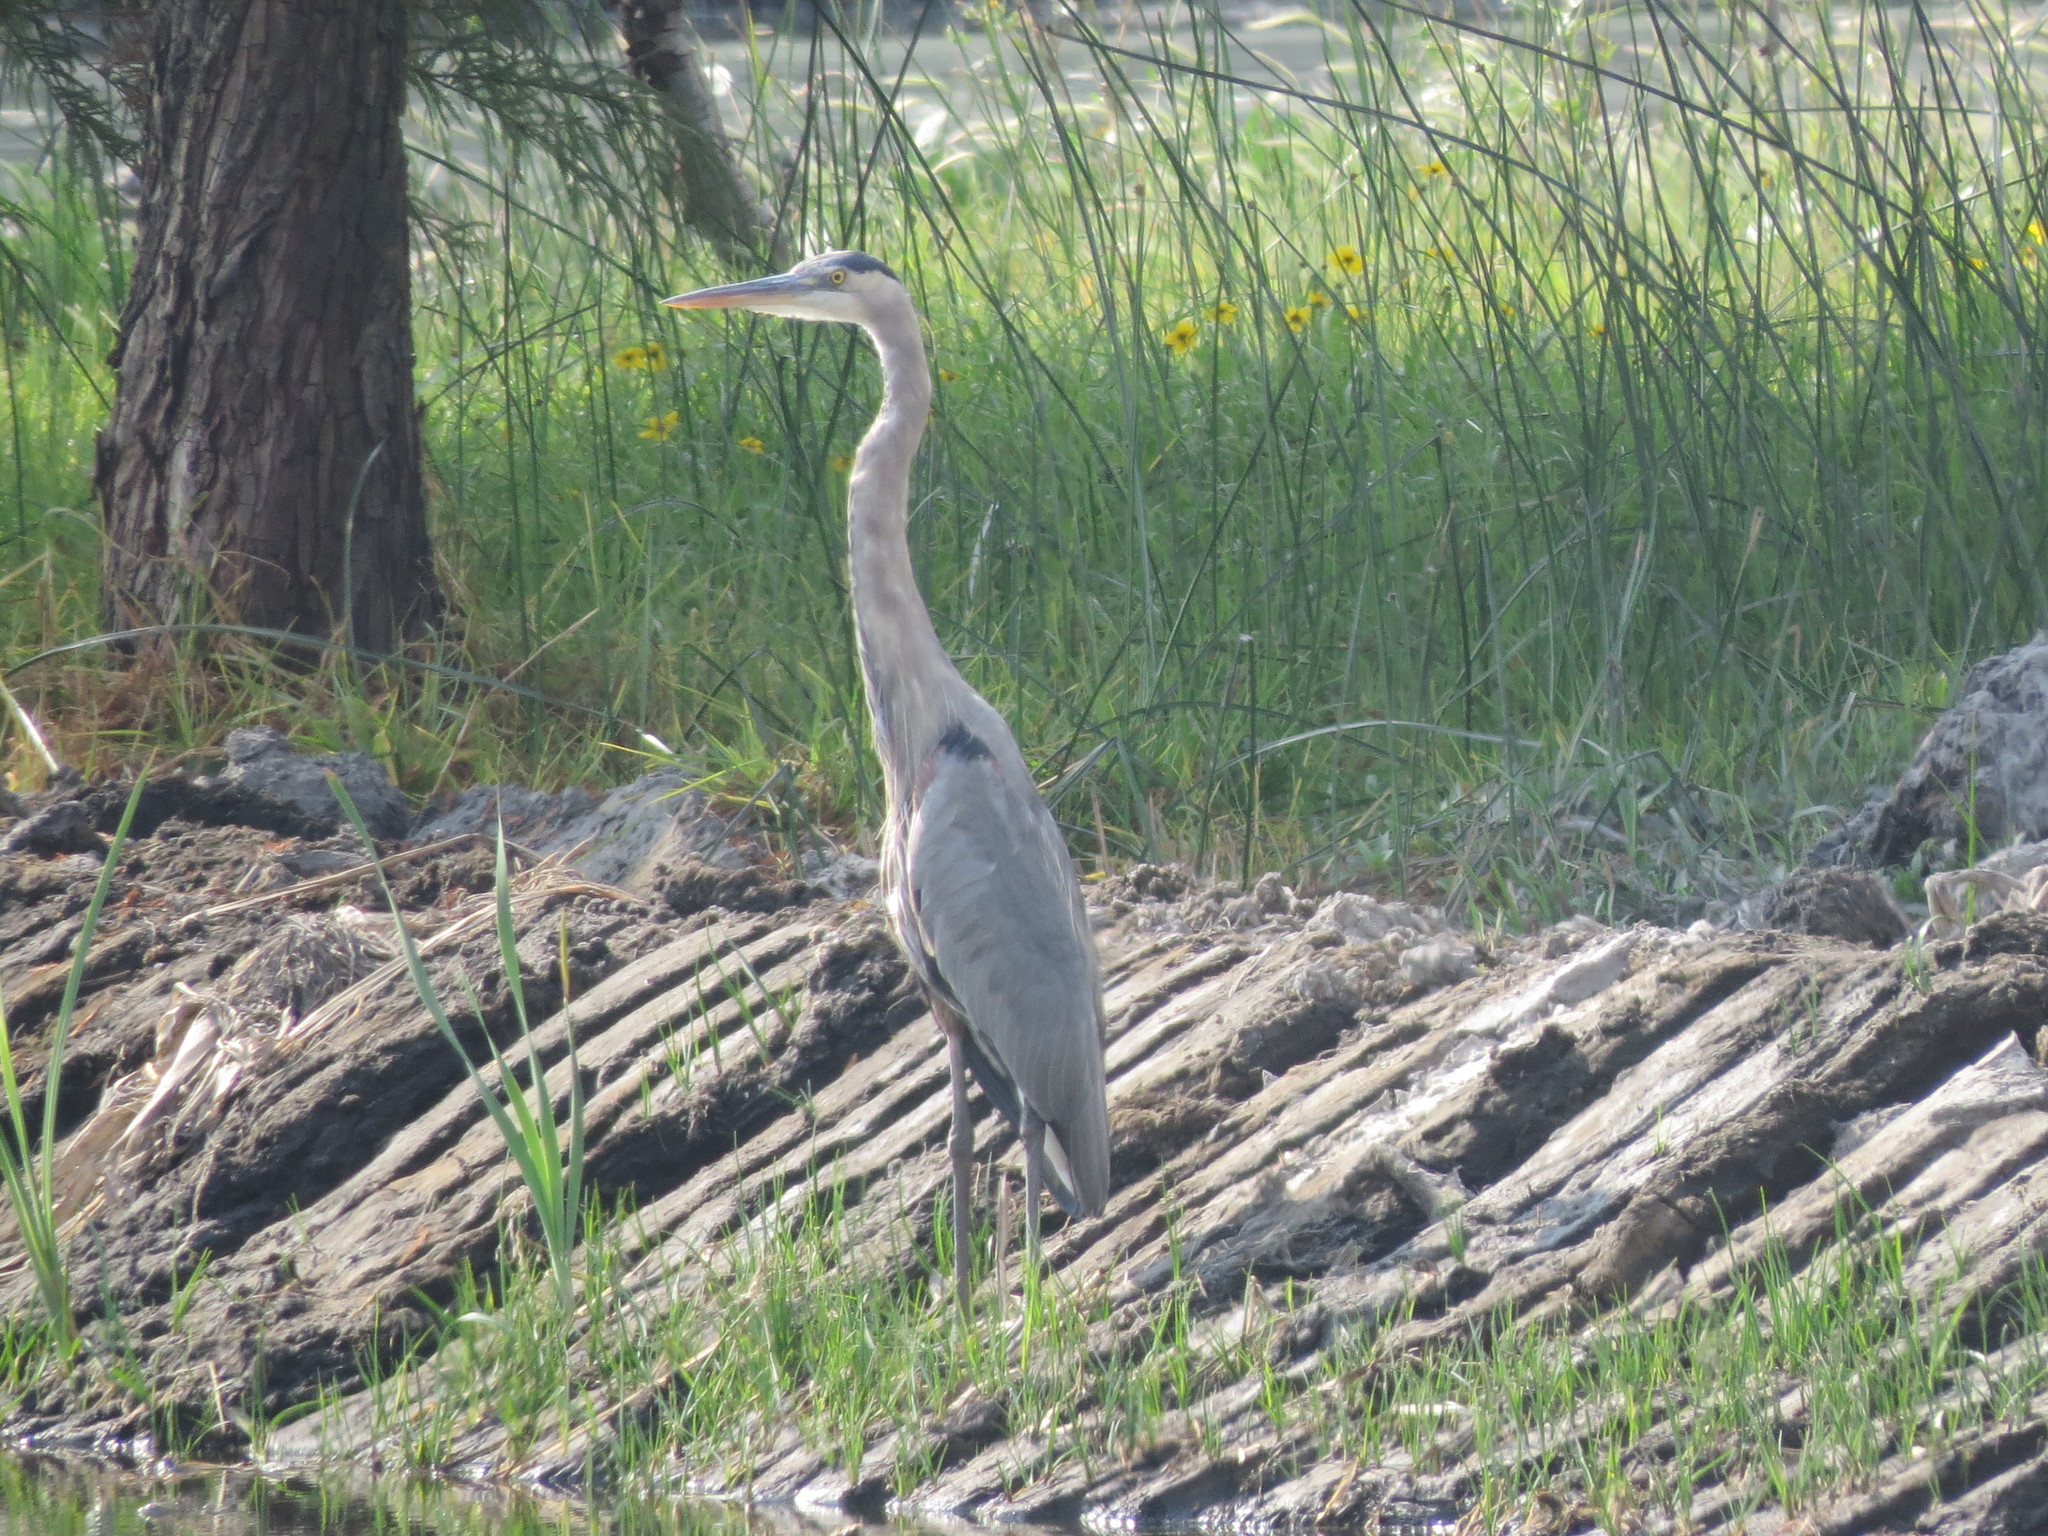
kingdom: Animalia
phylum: Chordata
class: Aves
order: Pelecaniformes
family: Ardeidae
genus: Ardea
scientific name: Ardea herodias
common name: Great blue heron
